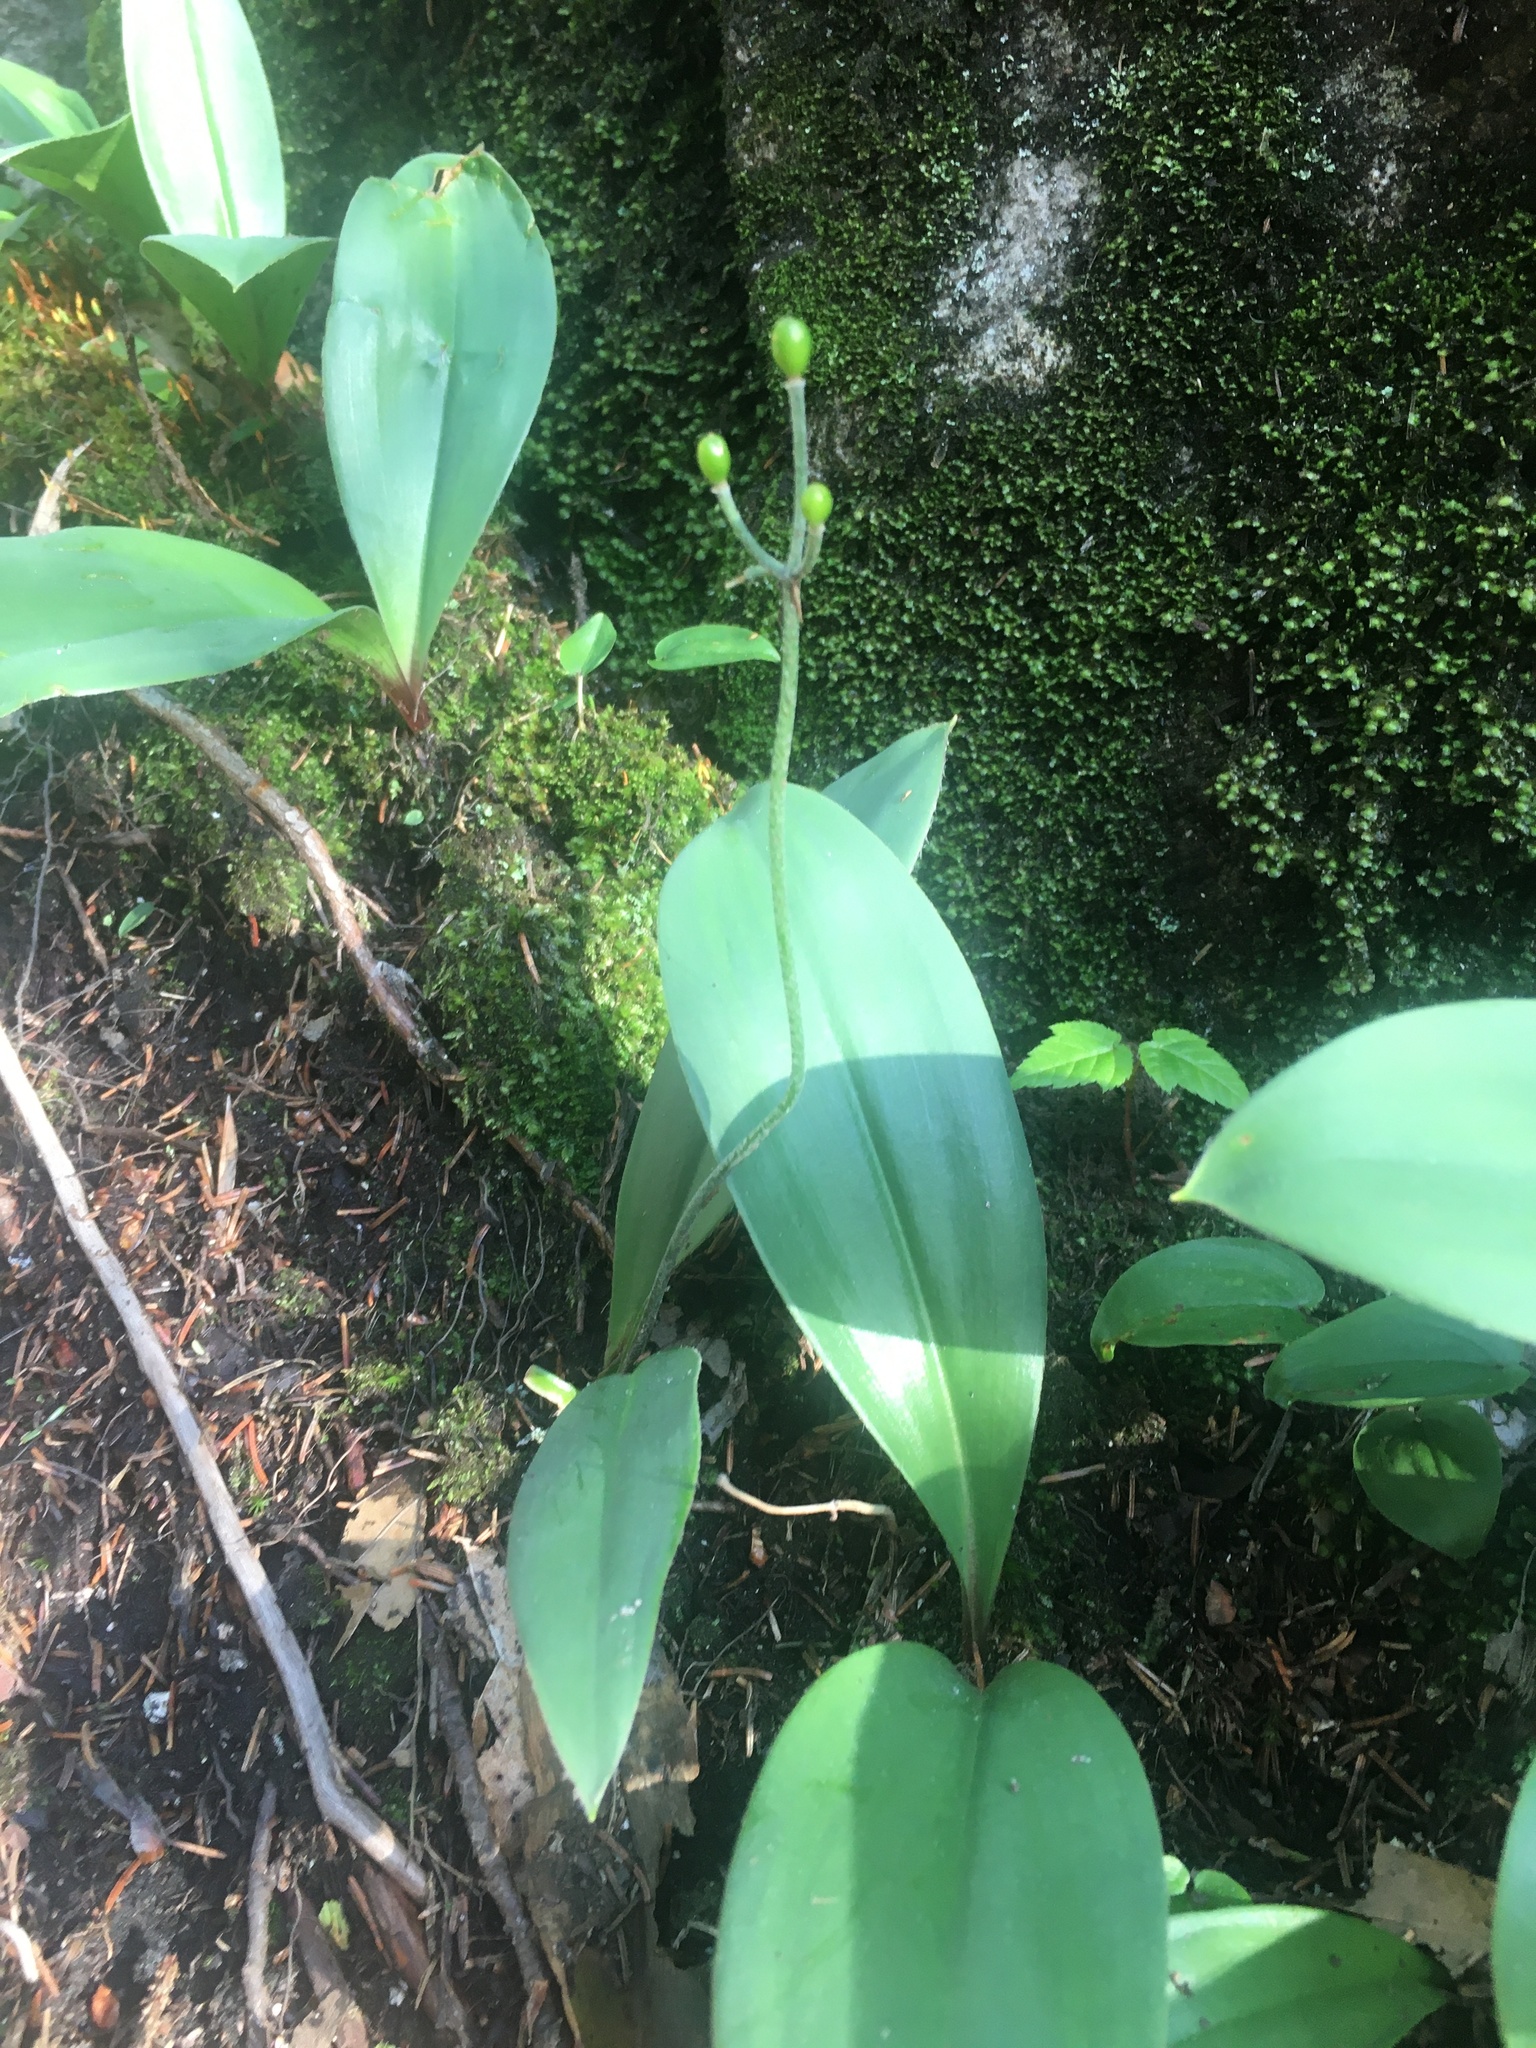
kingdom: Plantae
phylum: Tracheophyta
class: Liliopsida
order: Liliales
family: Liliaceae
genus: Clintonia
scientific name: Clintonia borealis
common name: Yellow clintonia
